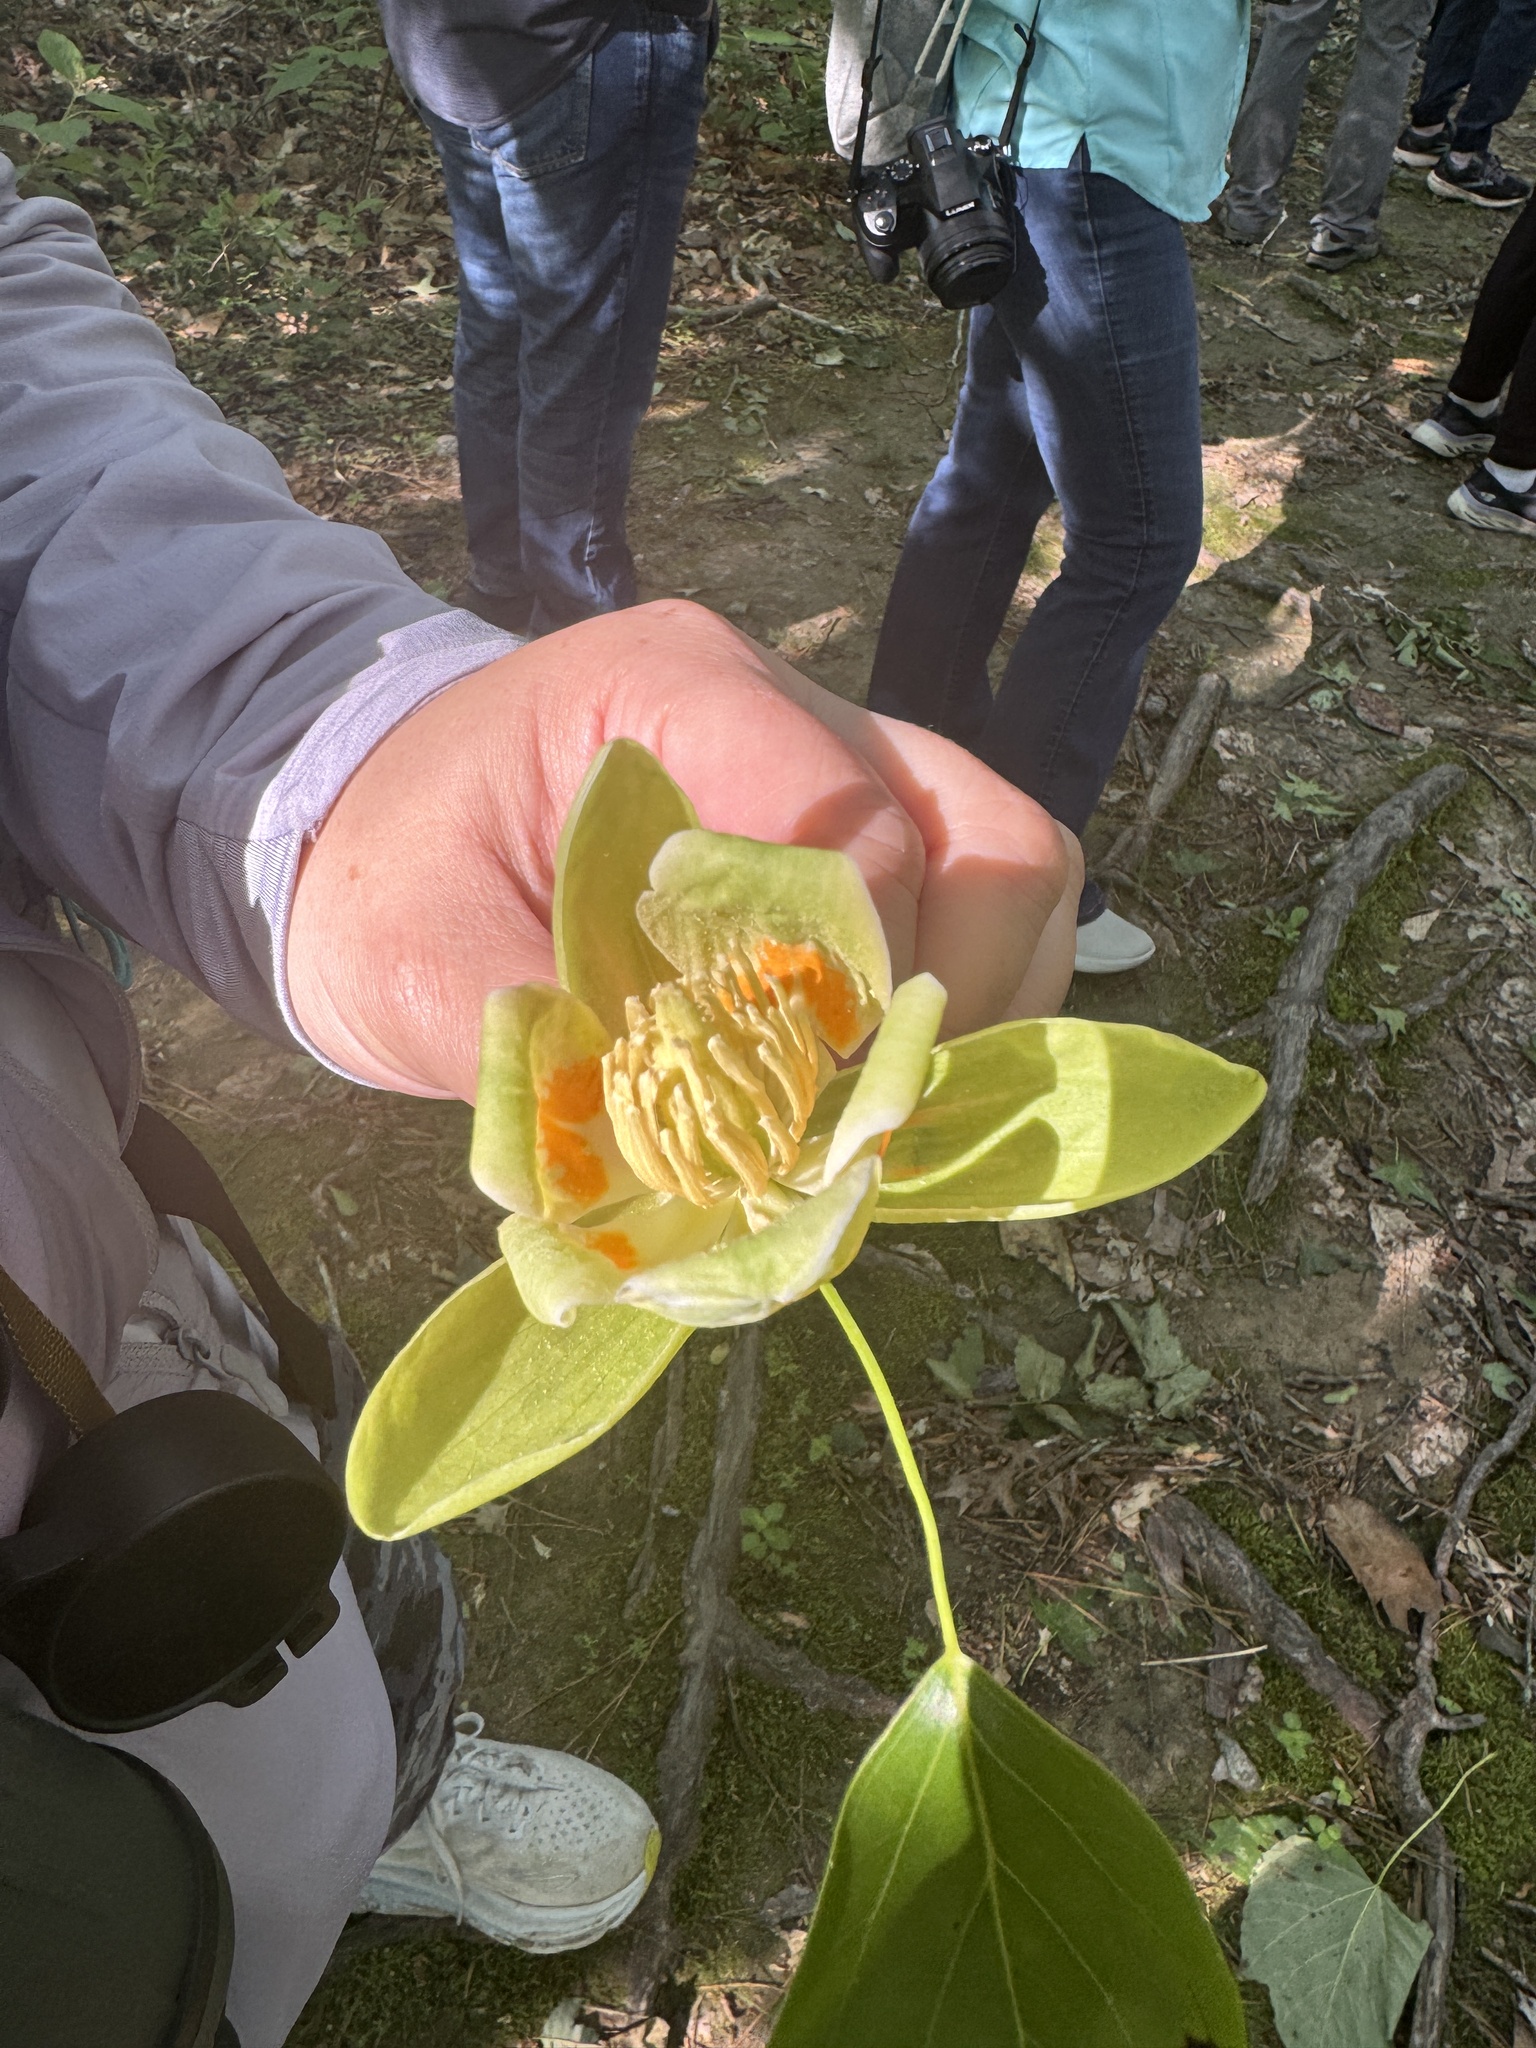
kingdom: Plantae
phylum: Tracheophyta
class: Magnoliopsida
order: Magnoliales
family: Magnoliaceae
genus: Liriodendron
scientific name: Liriodendron tulipifera
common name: Tulip tree
